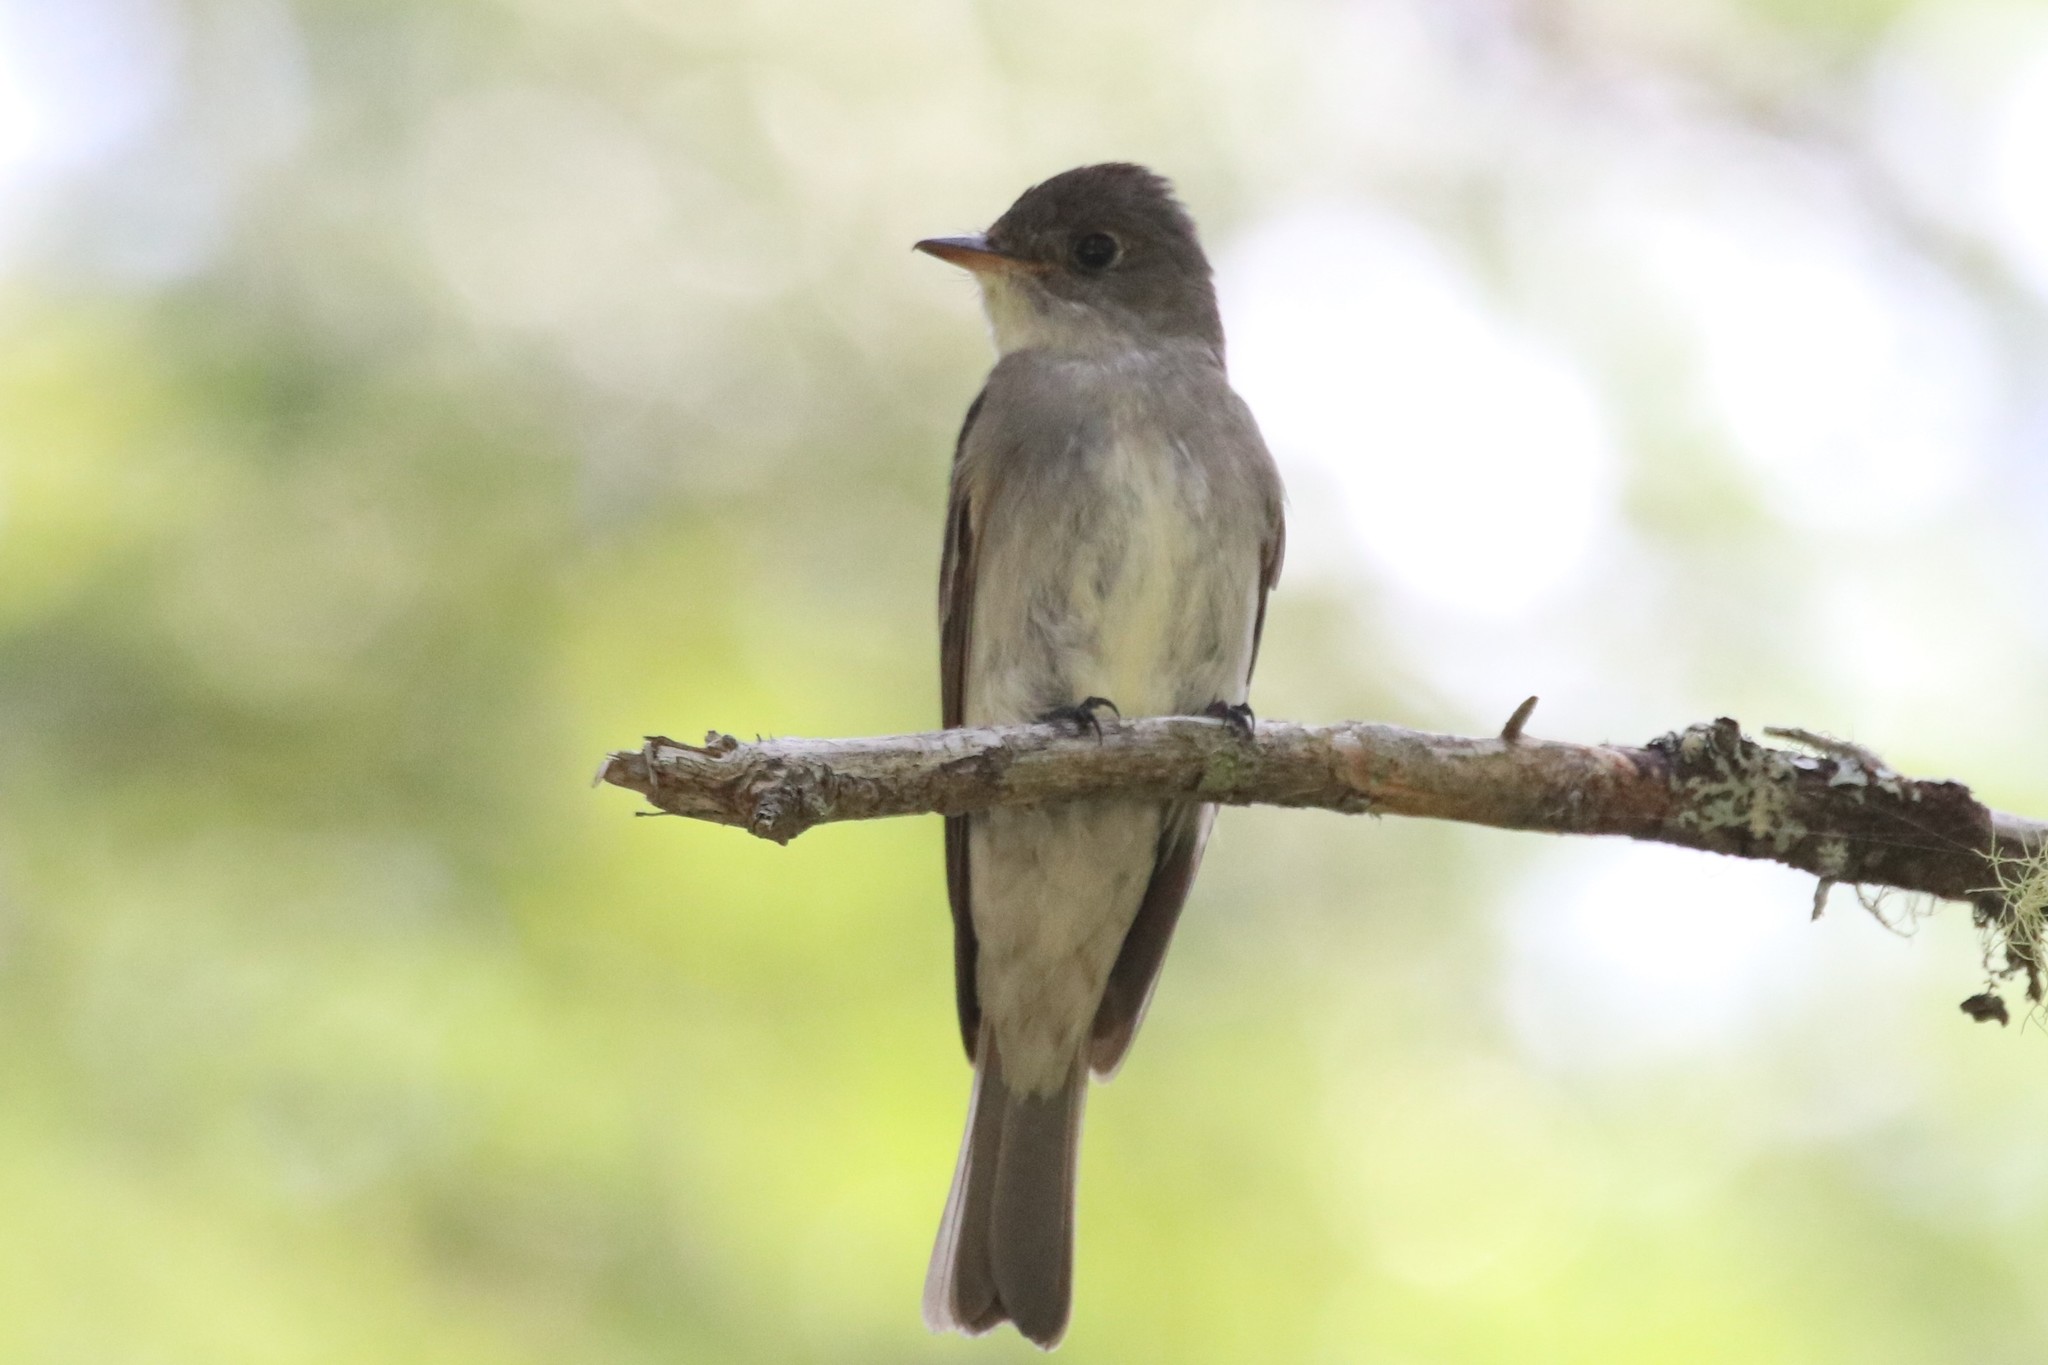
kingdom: Animalia
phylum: Chordata
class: Aves
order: Passeriformes
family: Tyrannidae
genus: Contopus
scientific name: Contopus virens
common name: Eastern wood-pewee
